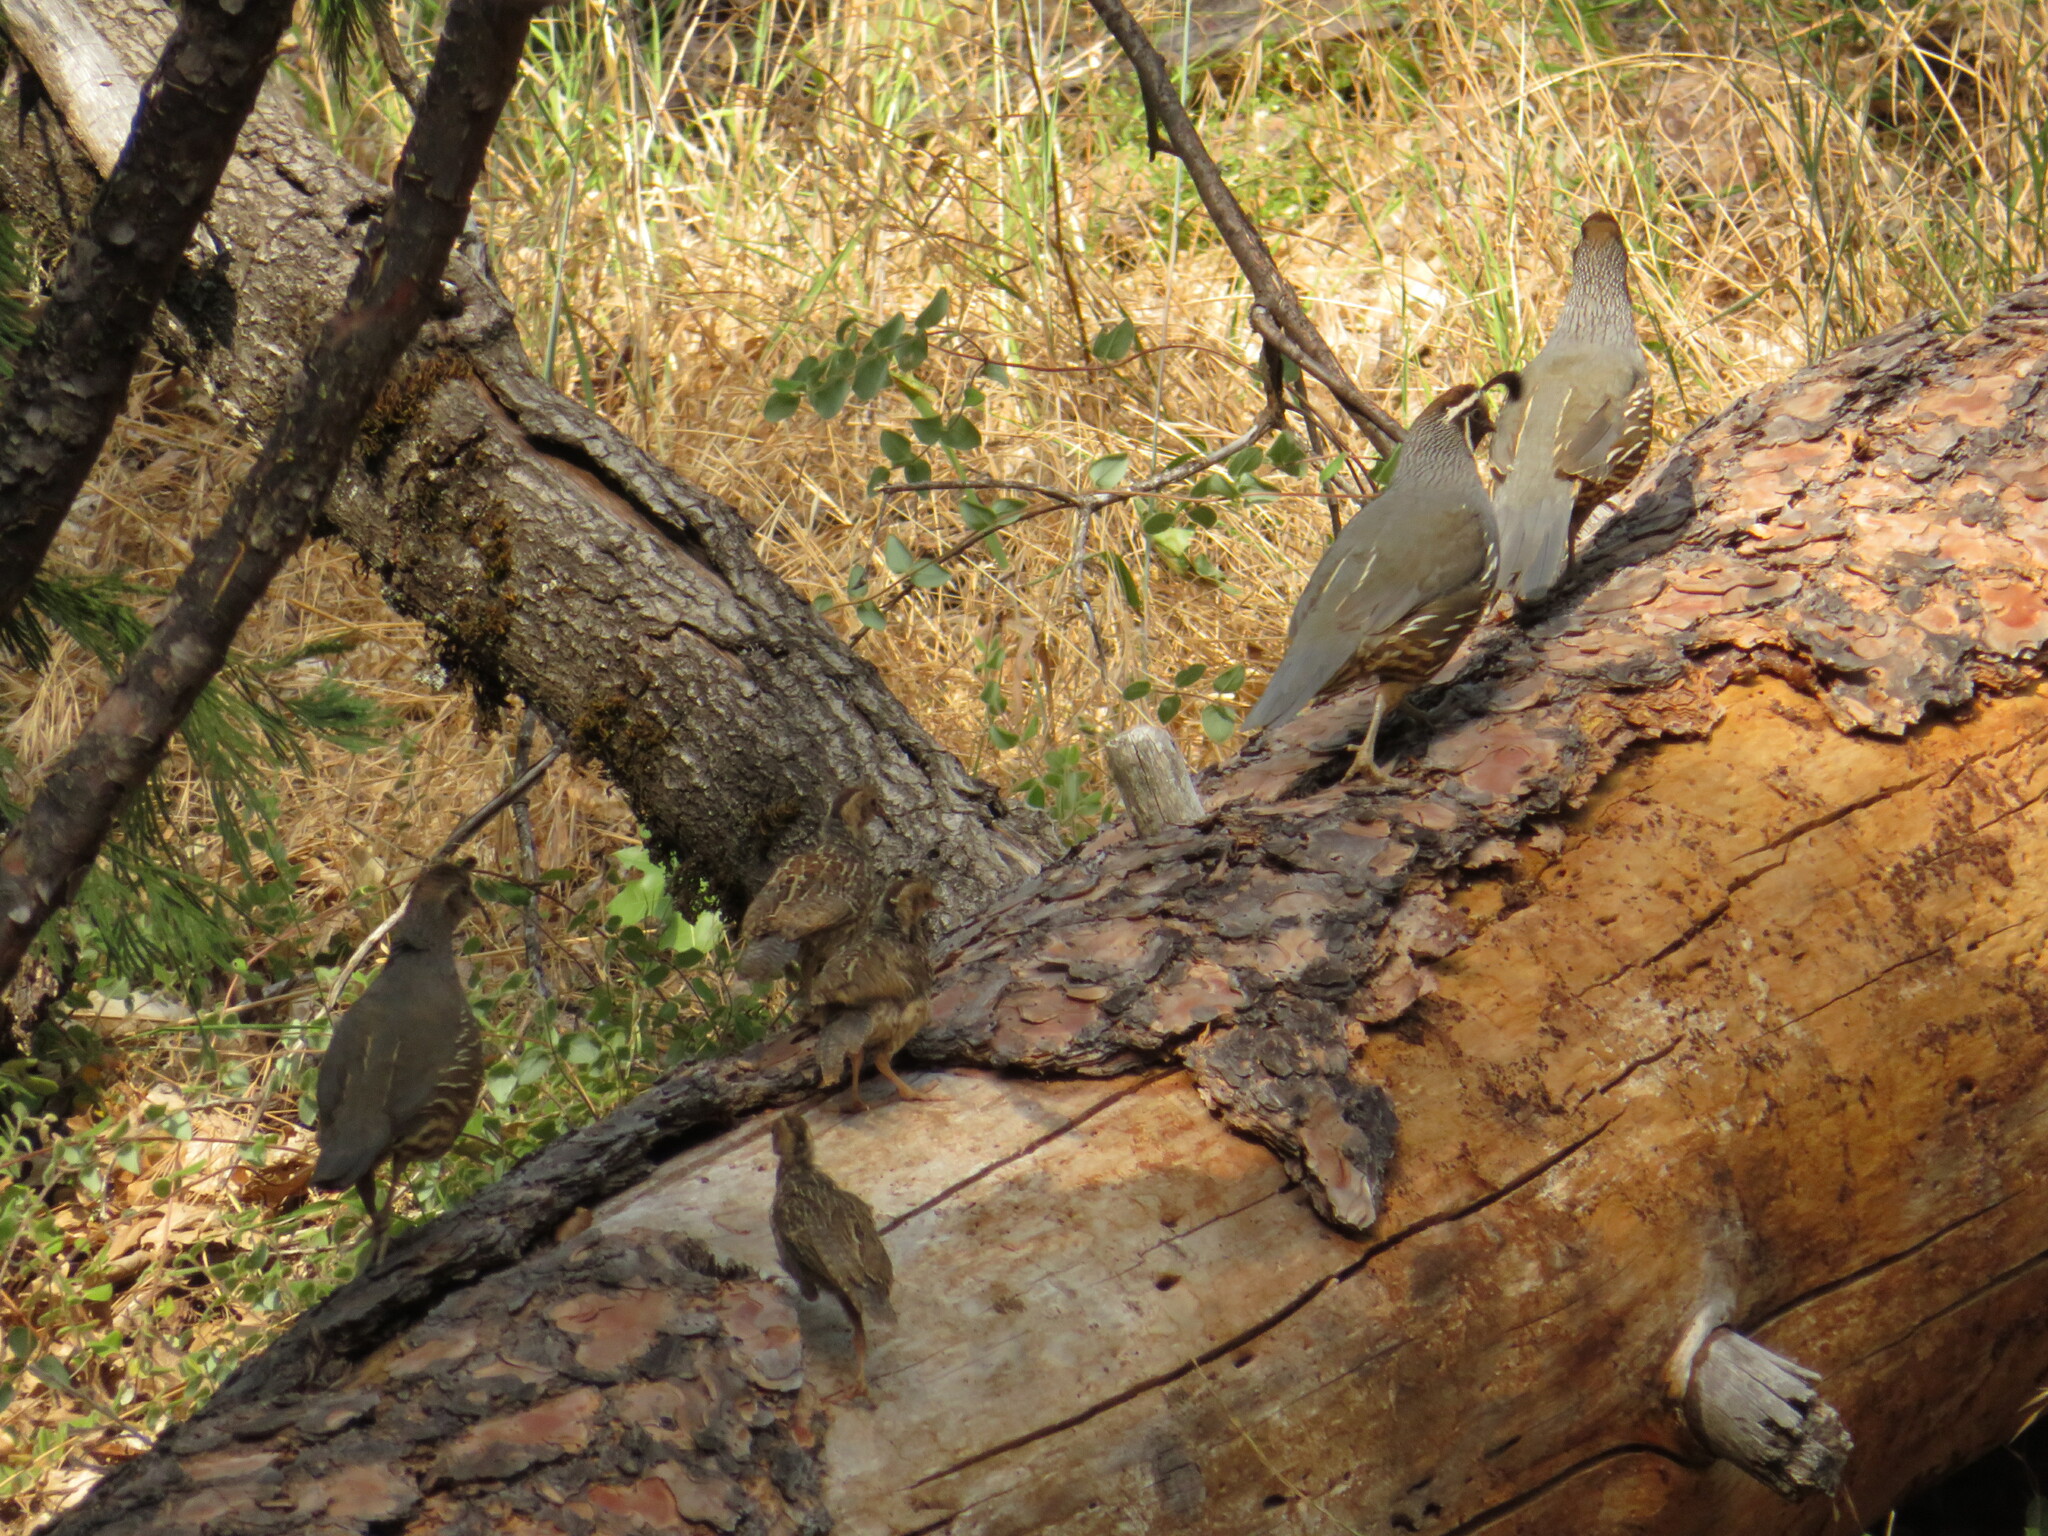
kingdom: Animalia
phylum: Chordata
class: Aves
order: Galliformes
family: Odontophoridae
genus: Callipepla
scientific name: Callipepla californica
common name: California quail
